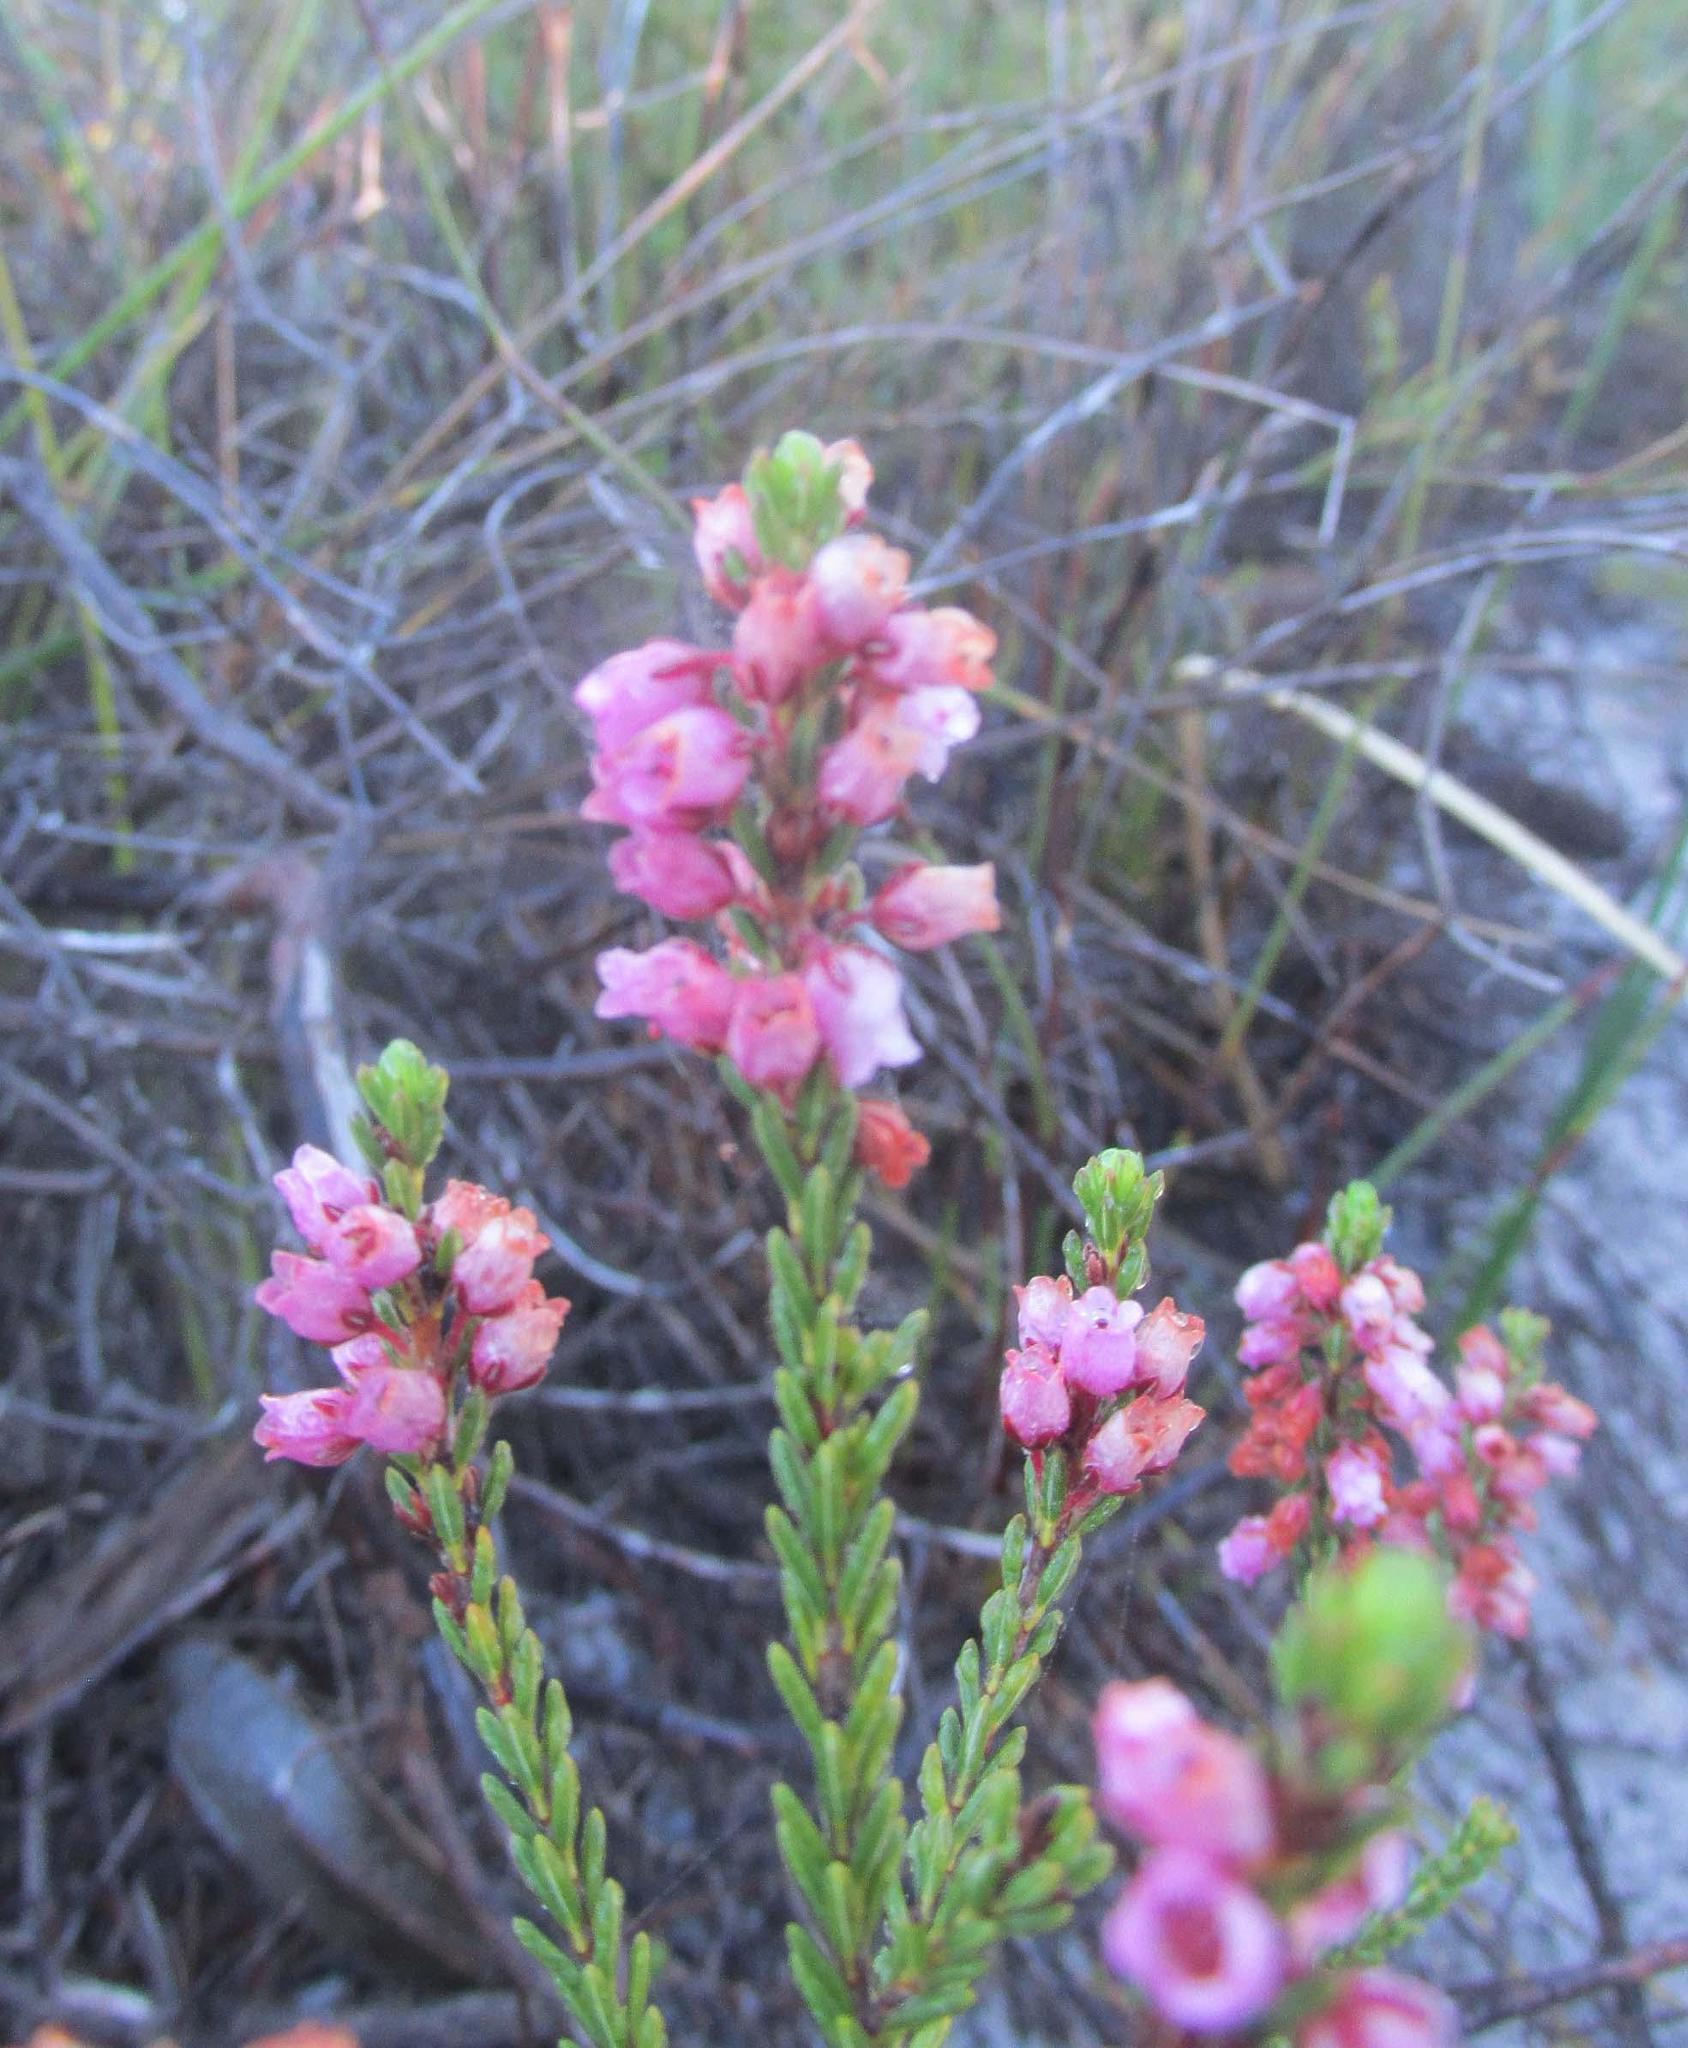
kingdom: Plantae
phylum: Tracheophyta
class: Magnoliopsida
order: Ericales
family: Ericaceae
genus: Erica
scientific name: Erica pulchella
